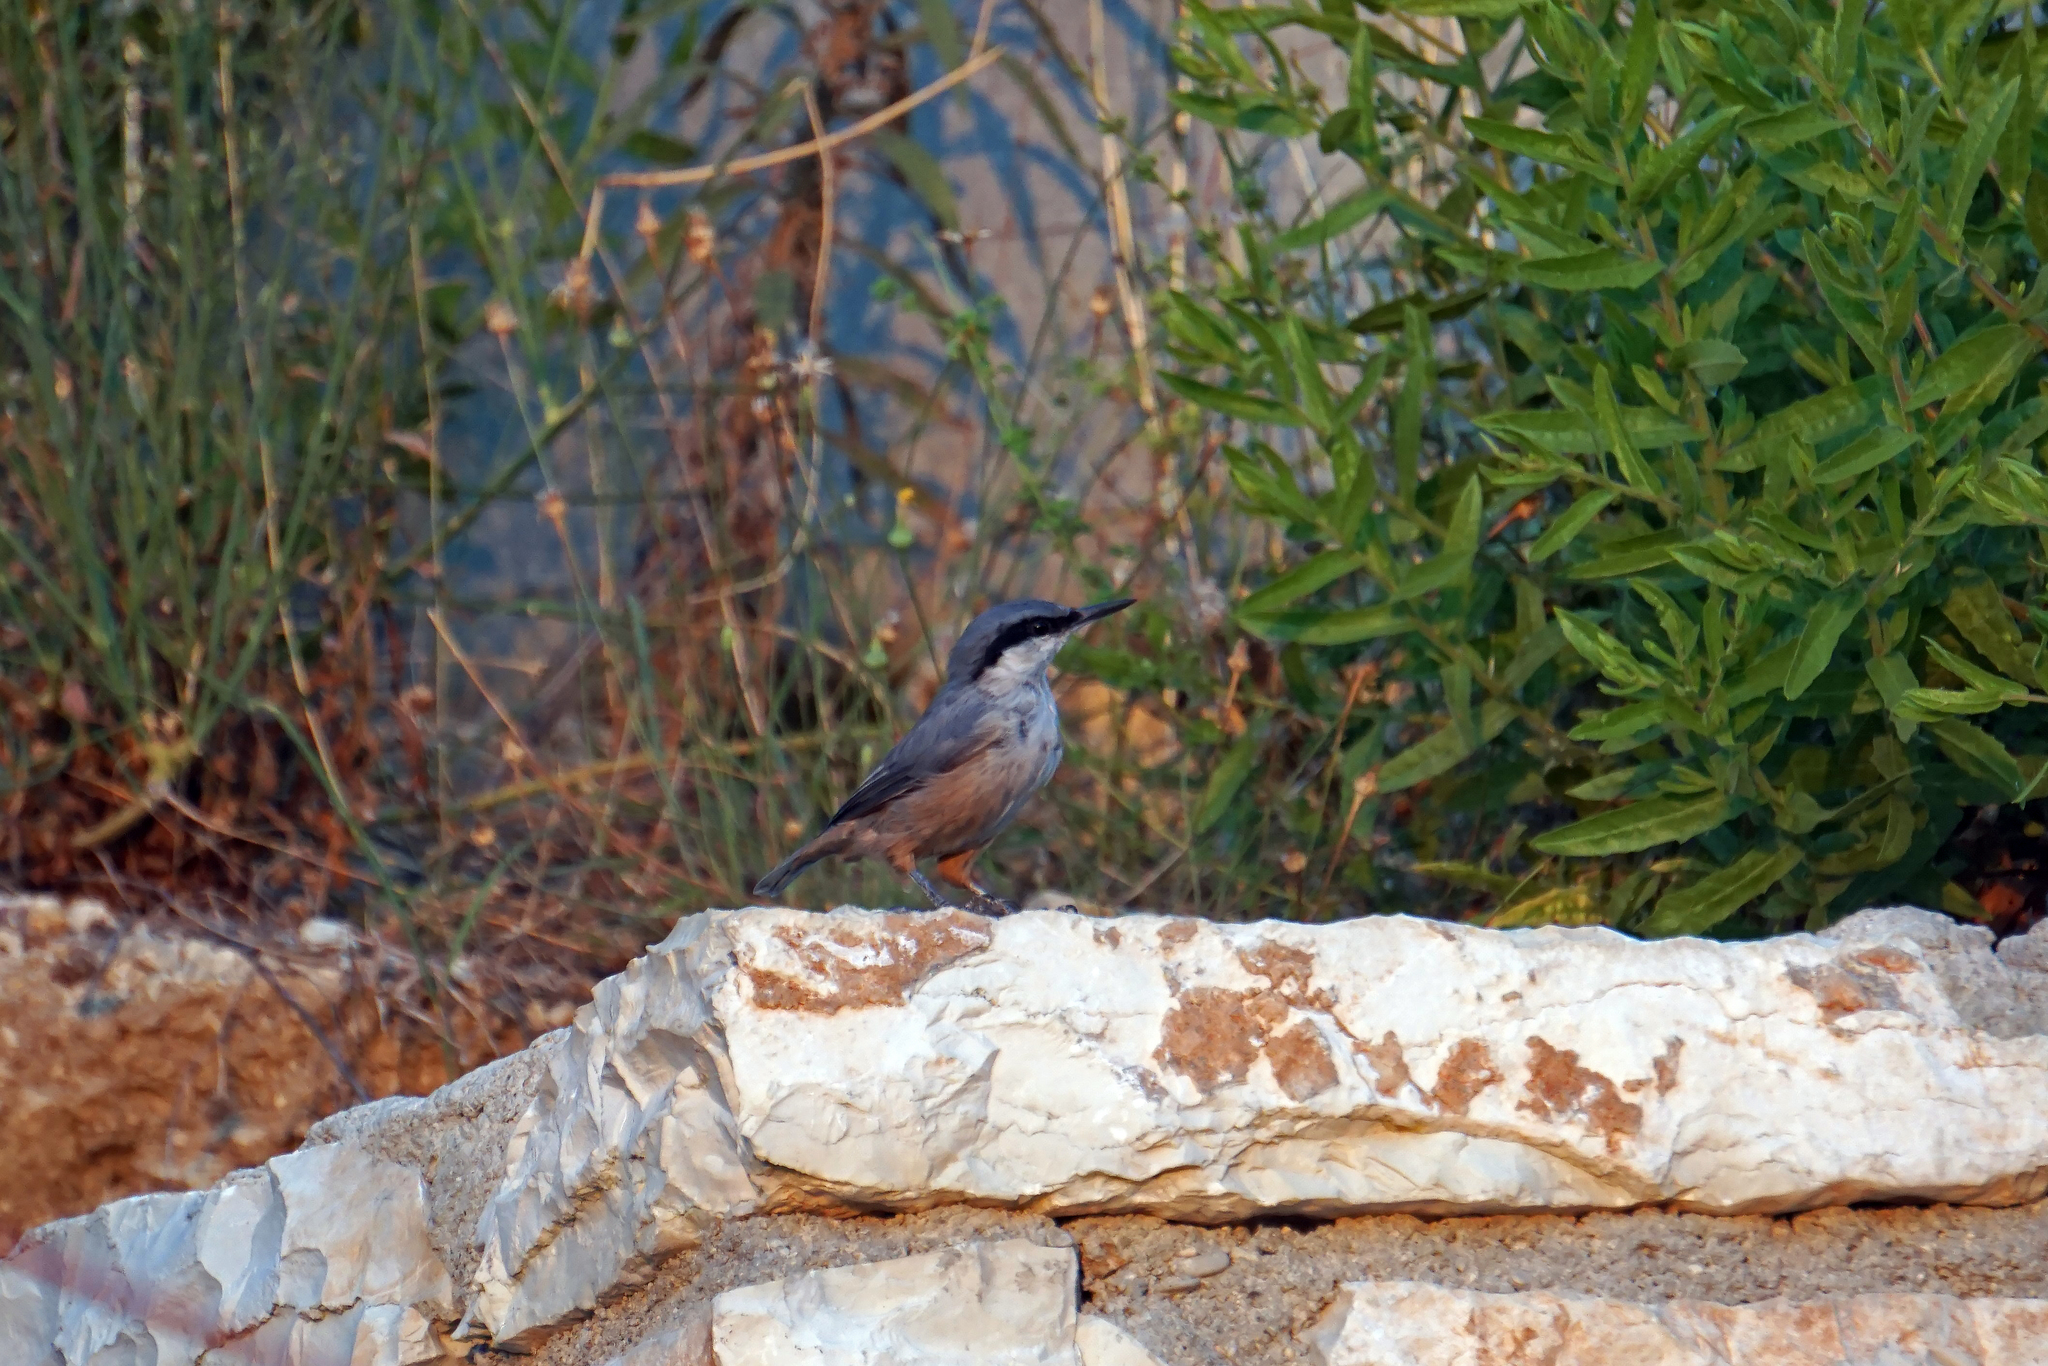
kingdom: Animalia
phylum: Chordata
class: Aves
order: Passeriformes
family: Sittidae
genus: Sitta
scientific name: Sitta europaea
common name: Eurasian nuthatch
